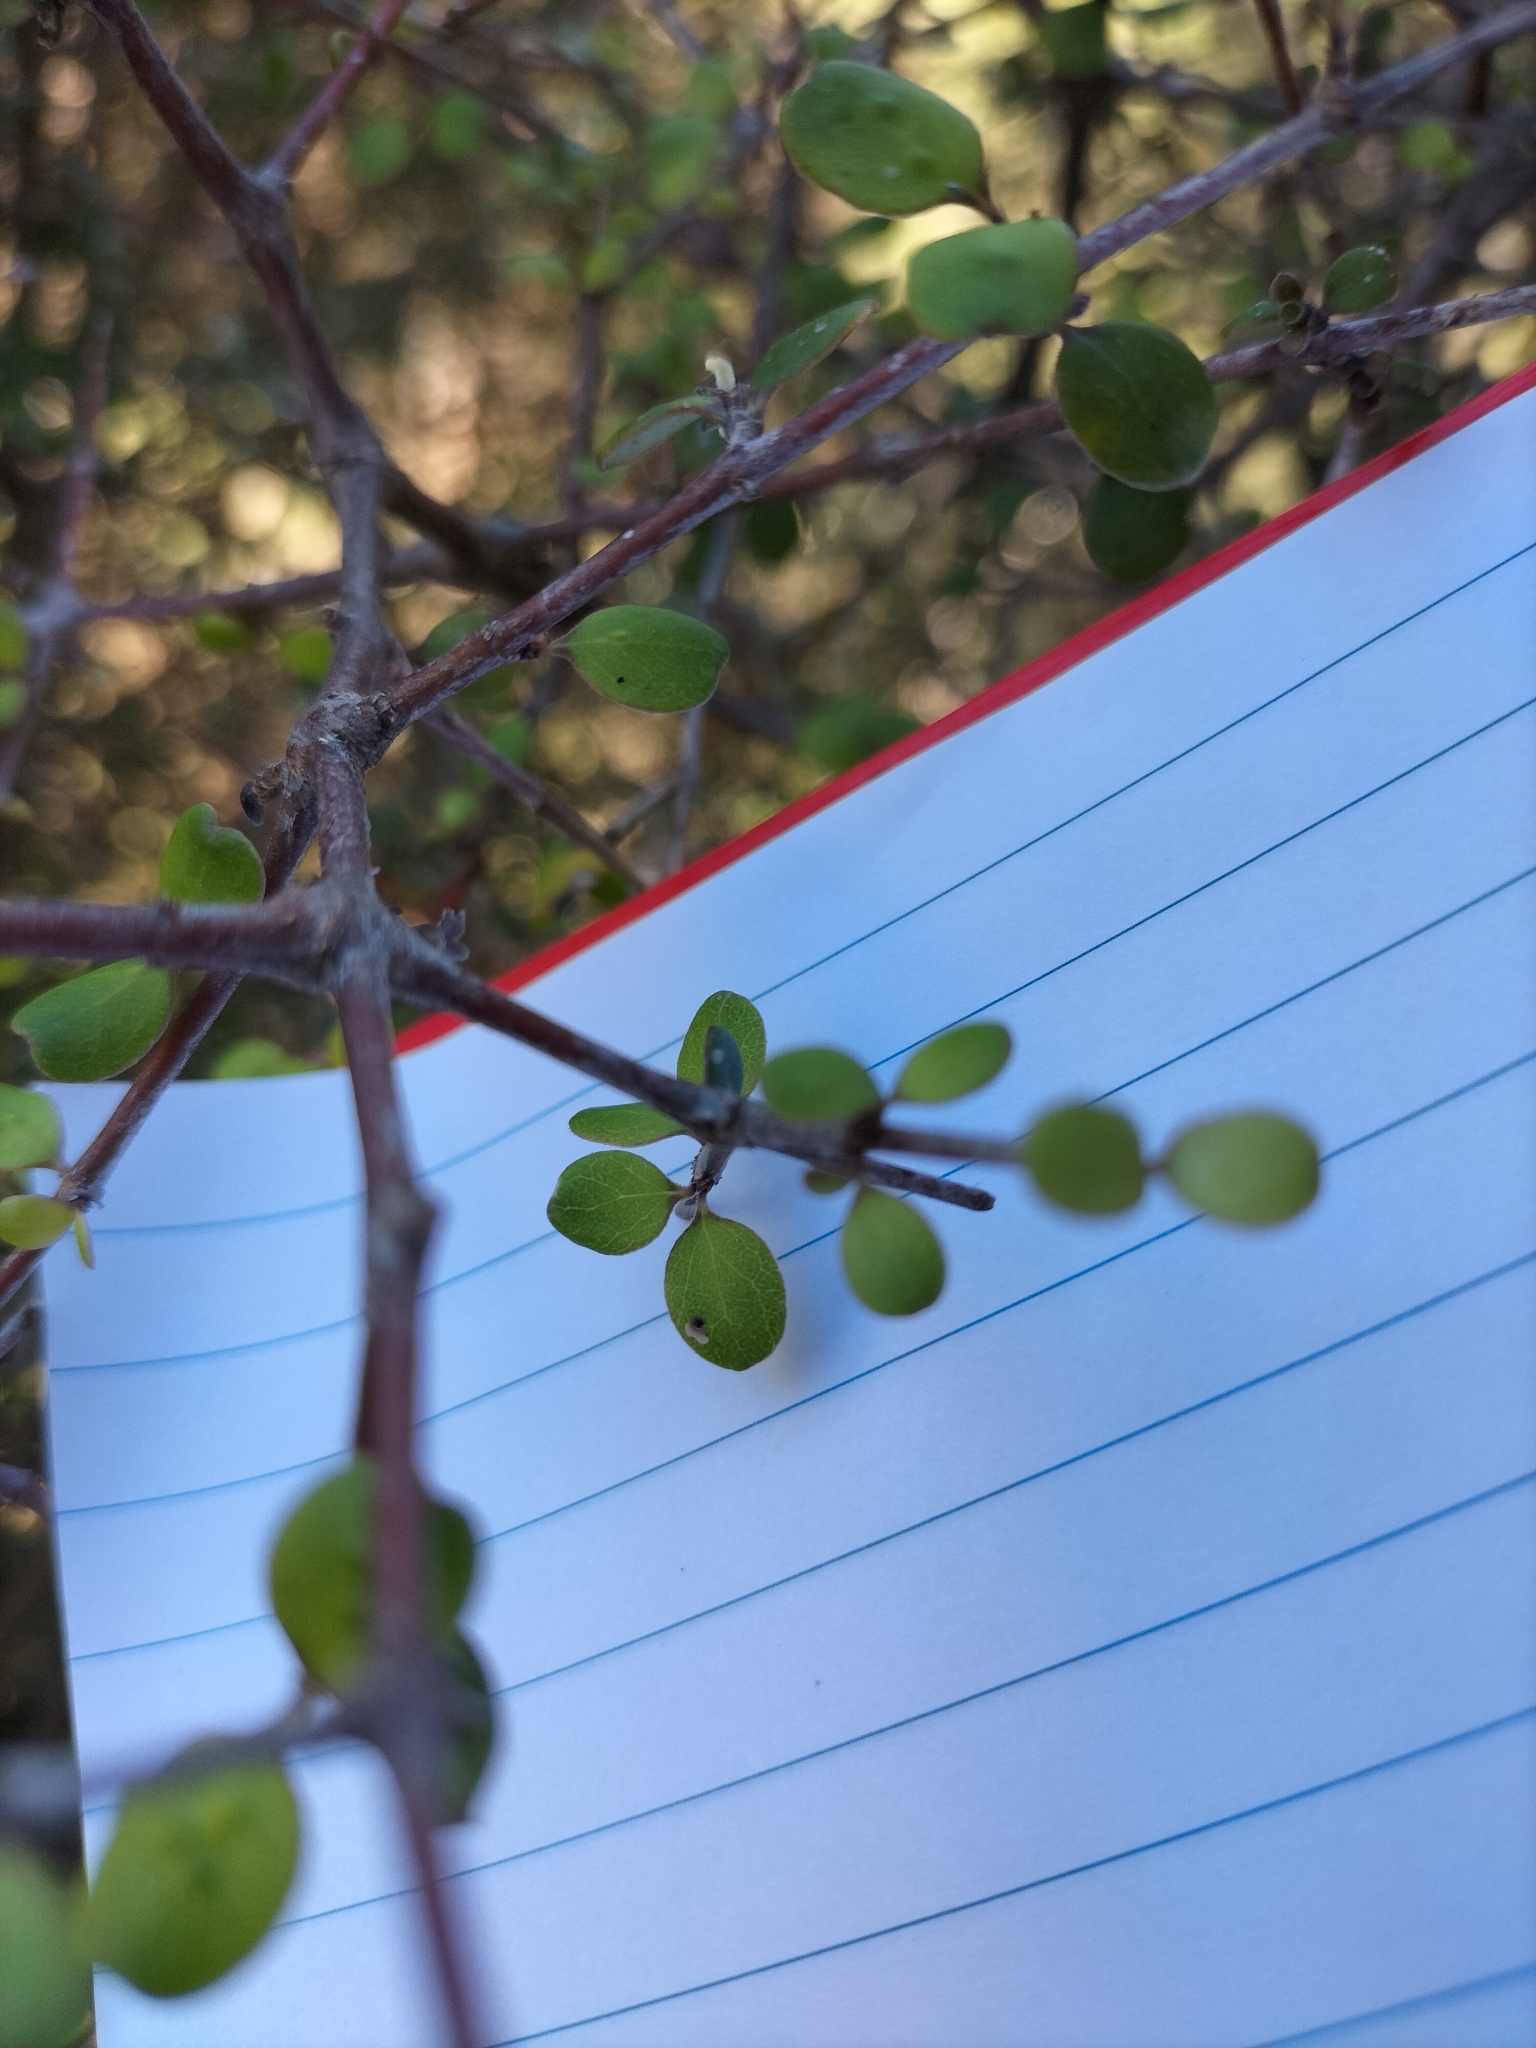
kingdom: Plantae
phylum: Tracheophyta
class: Magnoliopsida
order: Gentianales
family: Rubiaceae
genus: Coprosma
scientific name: Coprosma crassifolia
